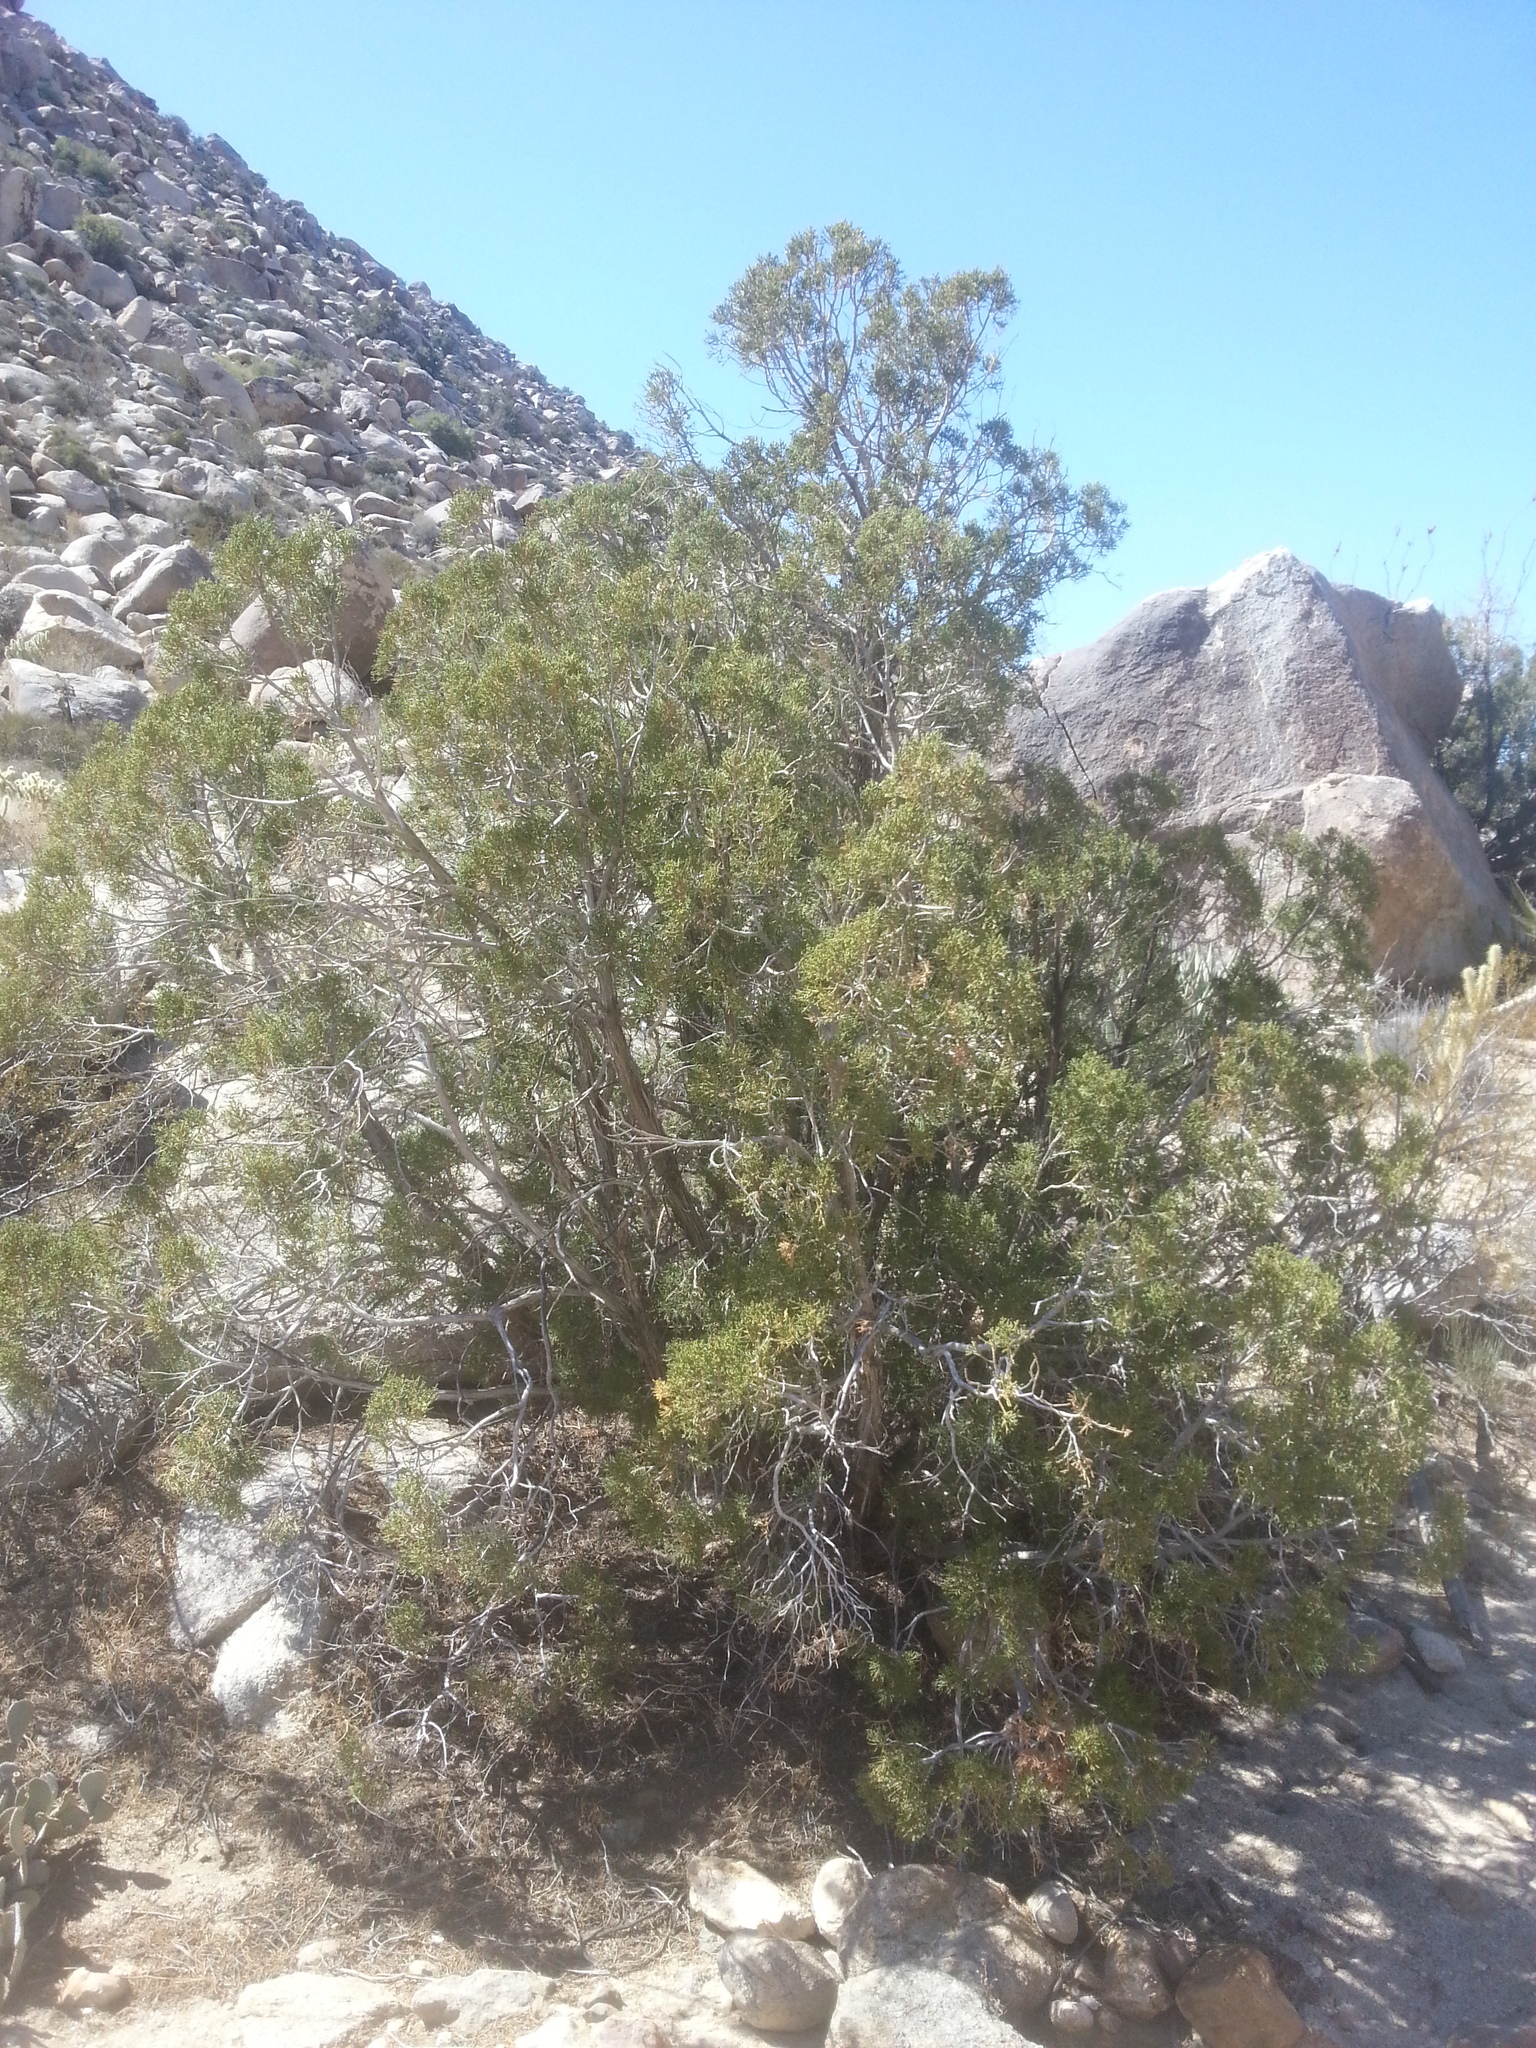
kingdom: Plantae
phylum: Tracheophyta
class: Pinopsida
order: Pinales
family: Cupressaceae
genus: Juniperus
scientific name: Juniperus californica
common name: California juniper
